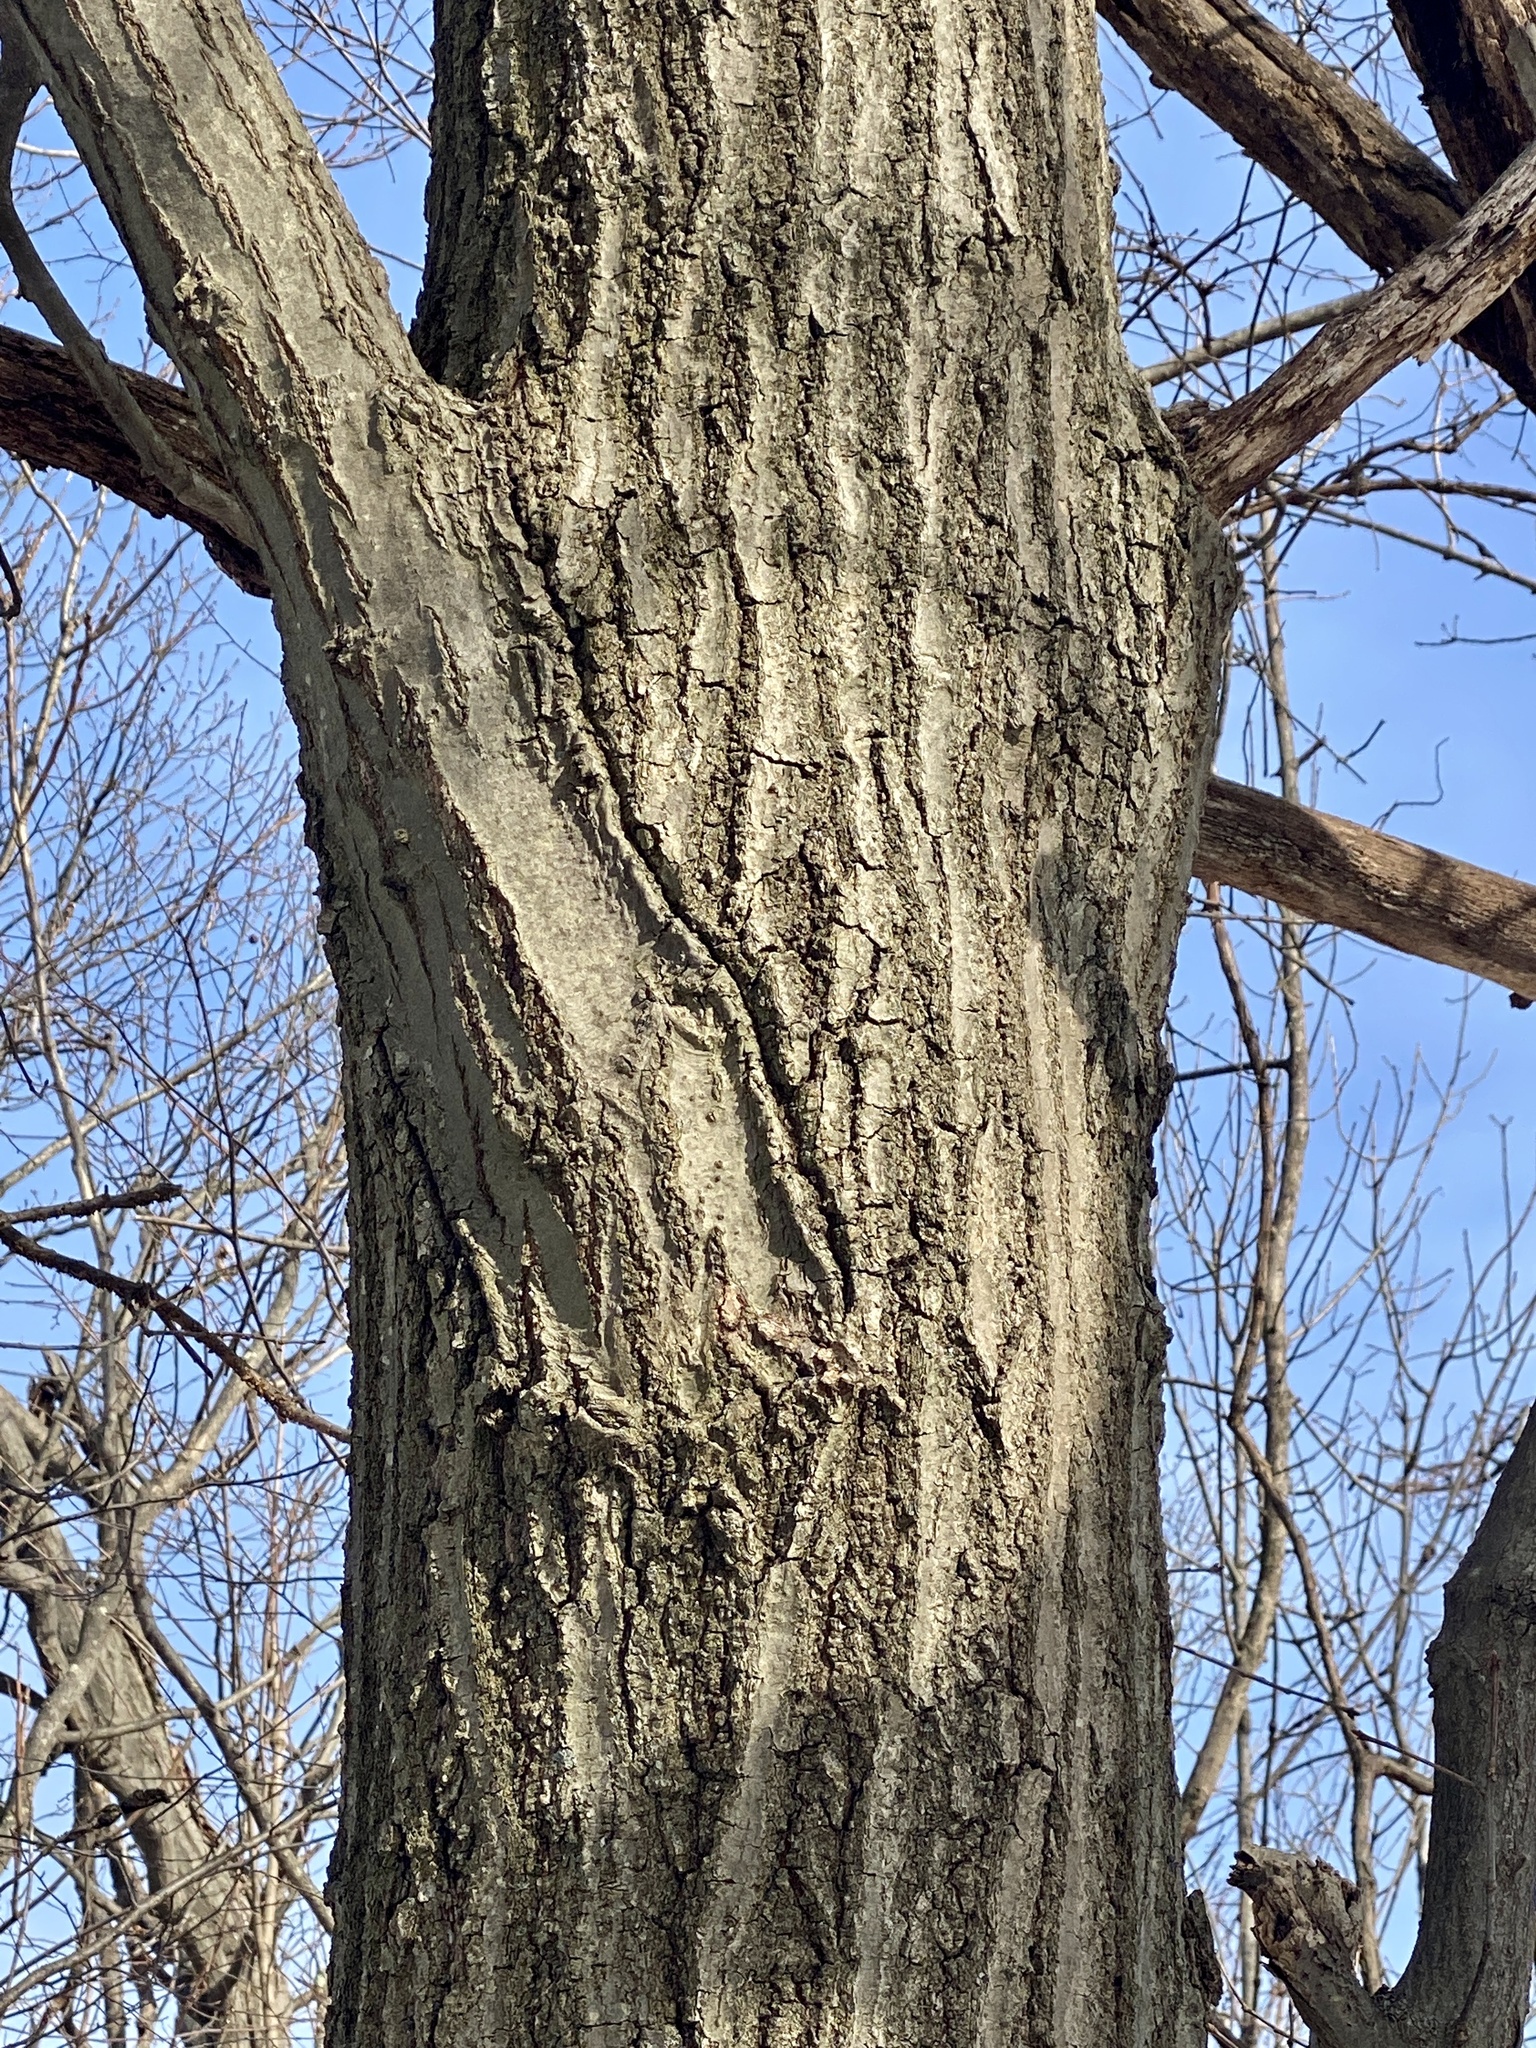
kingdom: Plantae
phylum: Tracheophyta
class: Magnoliopsida
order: Fagales
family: Fagaceae
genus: Quercus
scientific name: Quercus rubra
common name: Red oak
